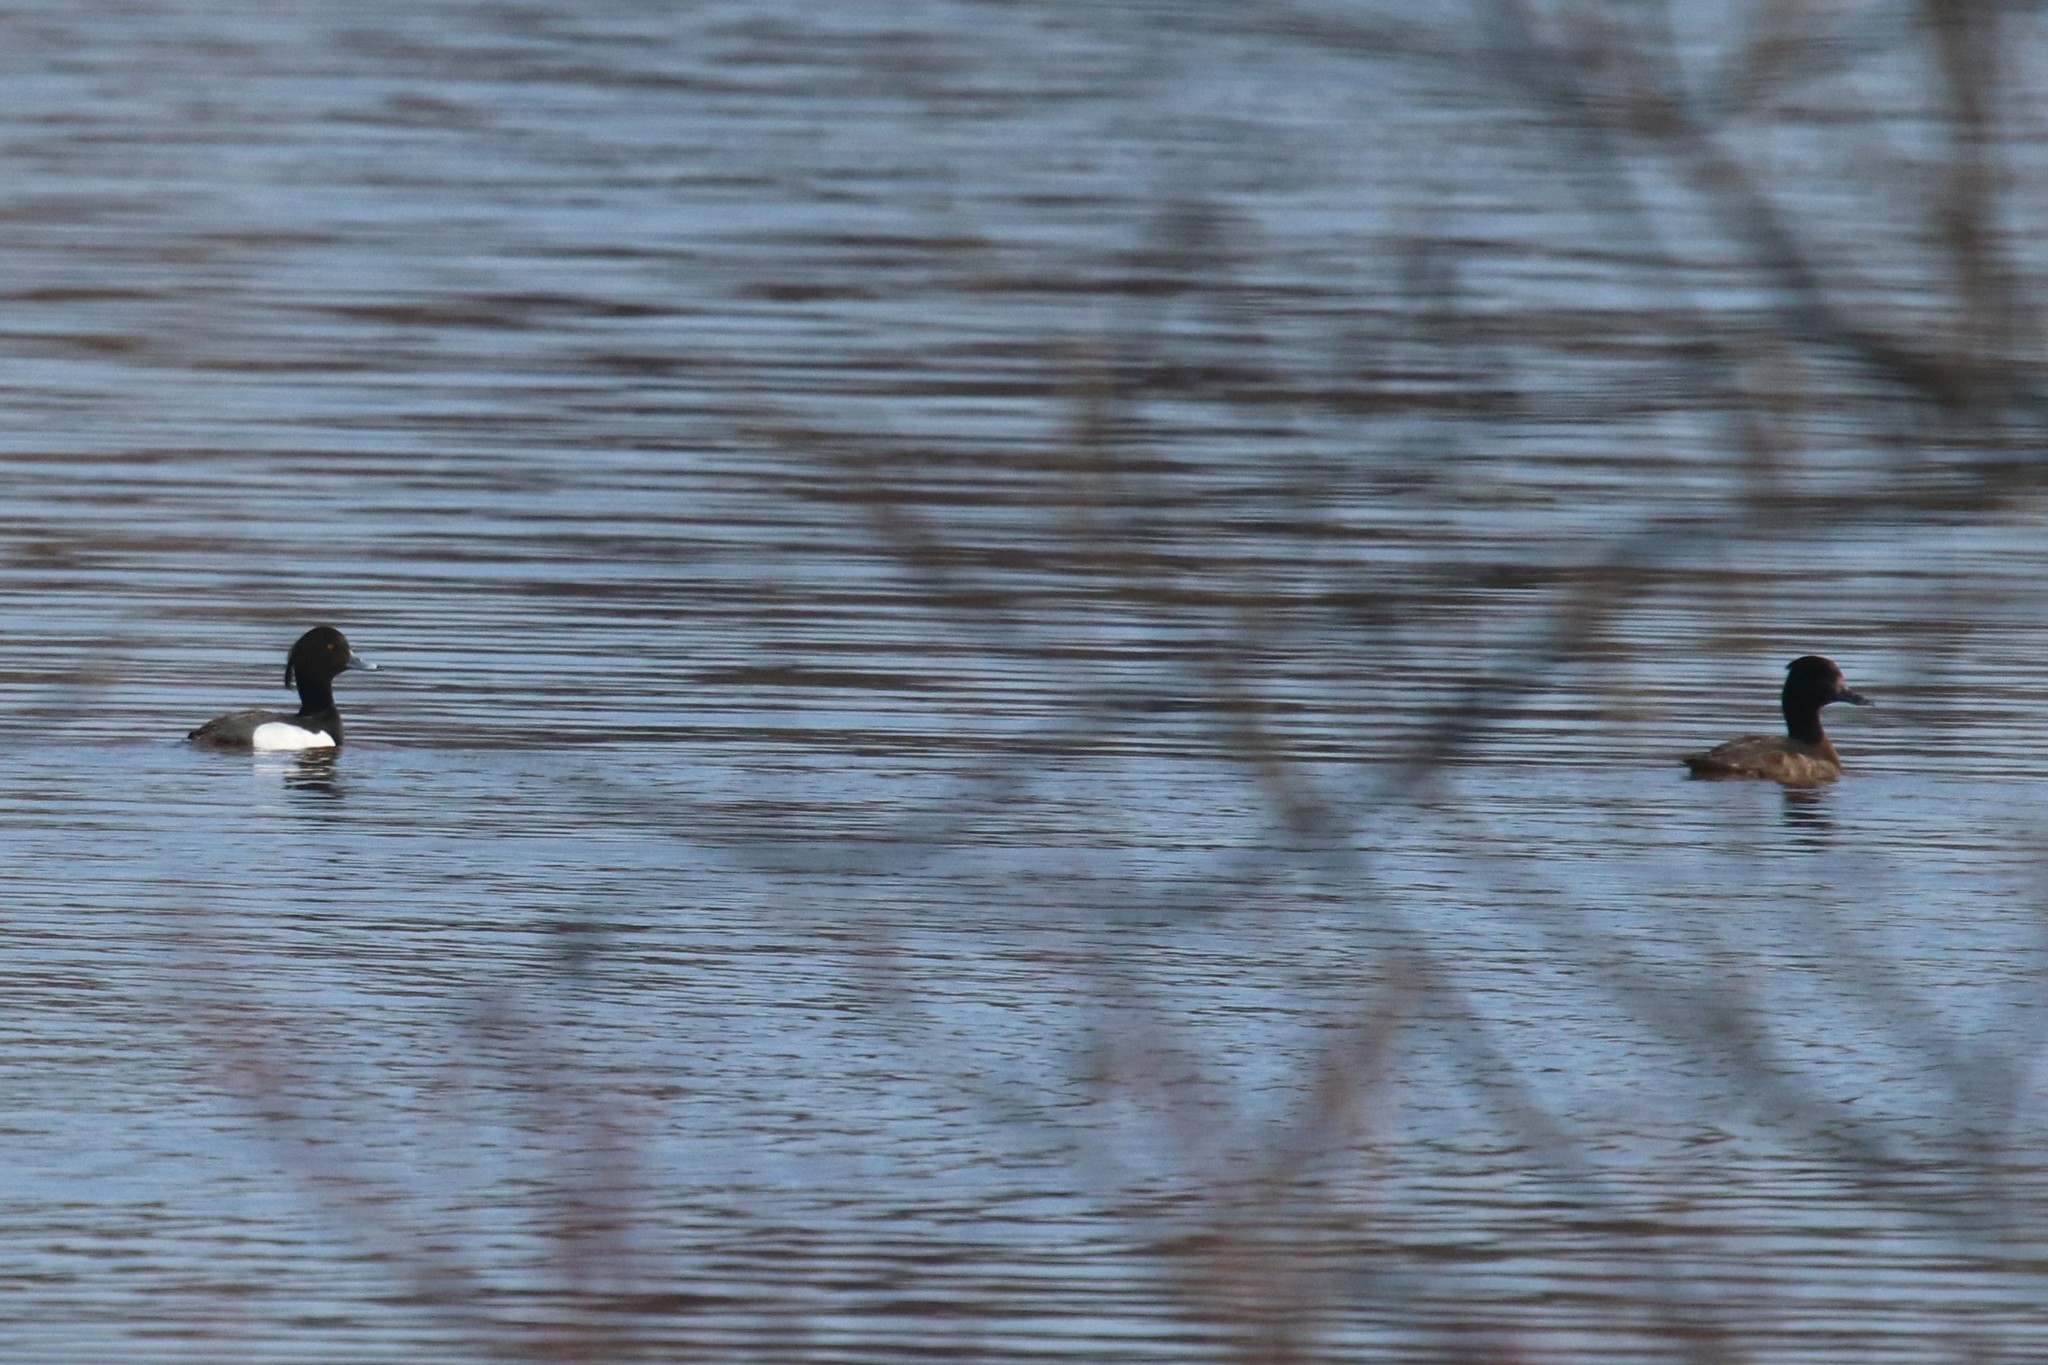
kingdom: Animalia
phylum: Chordata
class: Aves
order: Anseriformes
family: Anatidae
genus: Aythya
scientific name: Aythya fuligula
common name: Tufted duck
